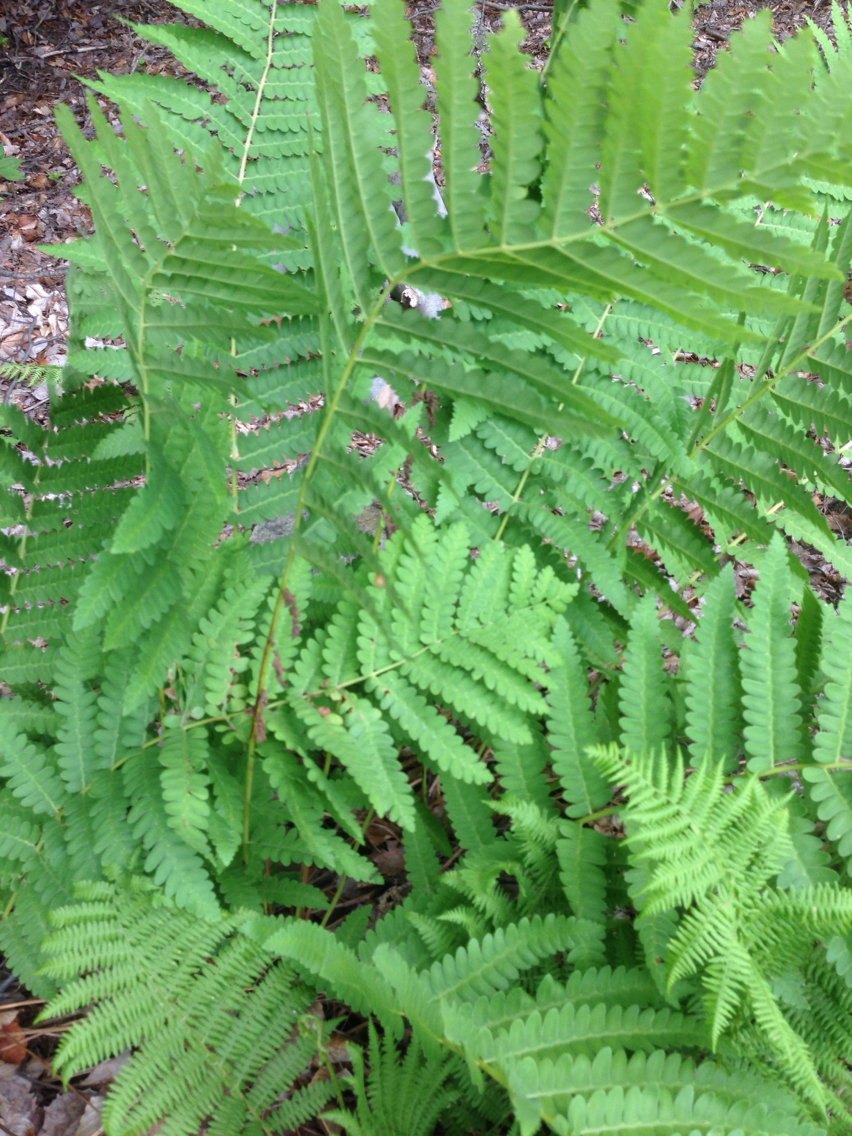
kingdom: Plantae
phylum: Tracheophyta
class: Polypodiopsida
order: Osmundales
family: Osmundaceae
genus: Claytosmunda
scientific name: Claytosmunda claytoniana
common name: Clayton's fern
